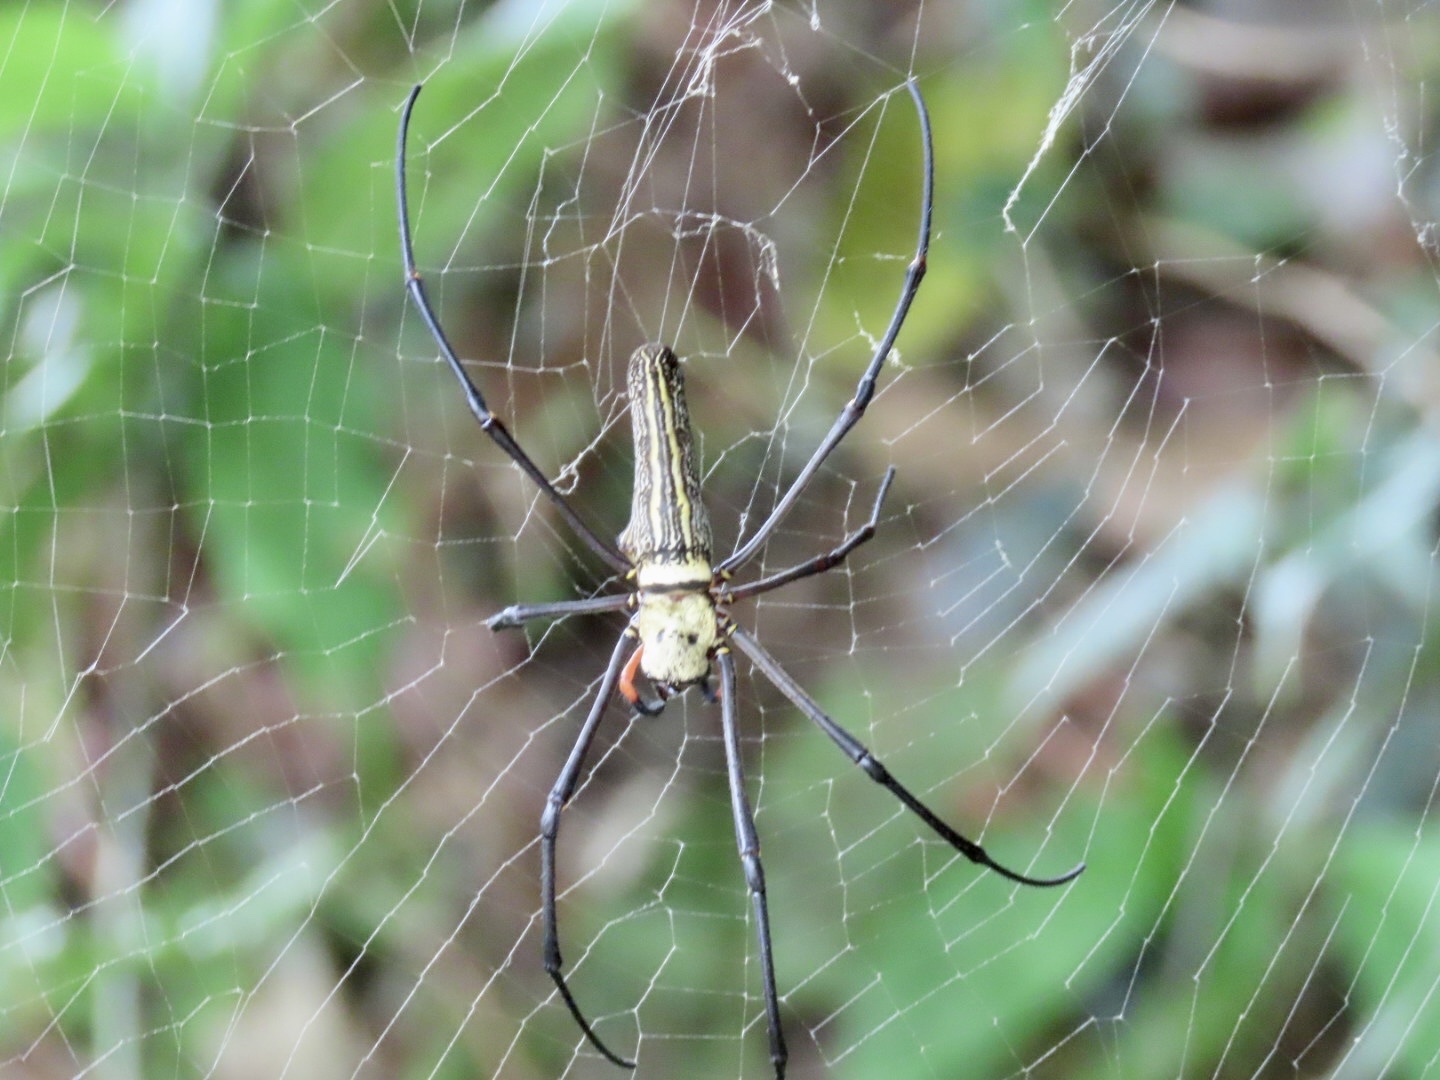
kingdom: Animalia
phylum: Arthropoda
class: Arachnida
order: Araneae
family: Araneidae
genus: Nephila
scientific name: Nephila pilipes
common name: Giant golden orb weaver
